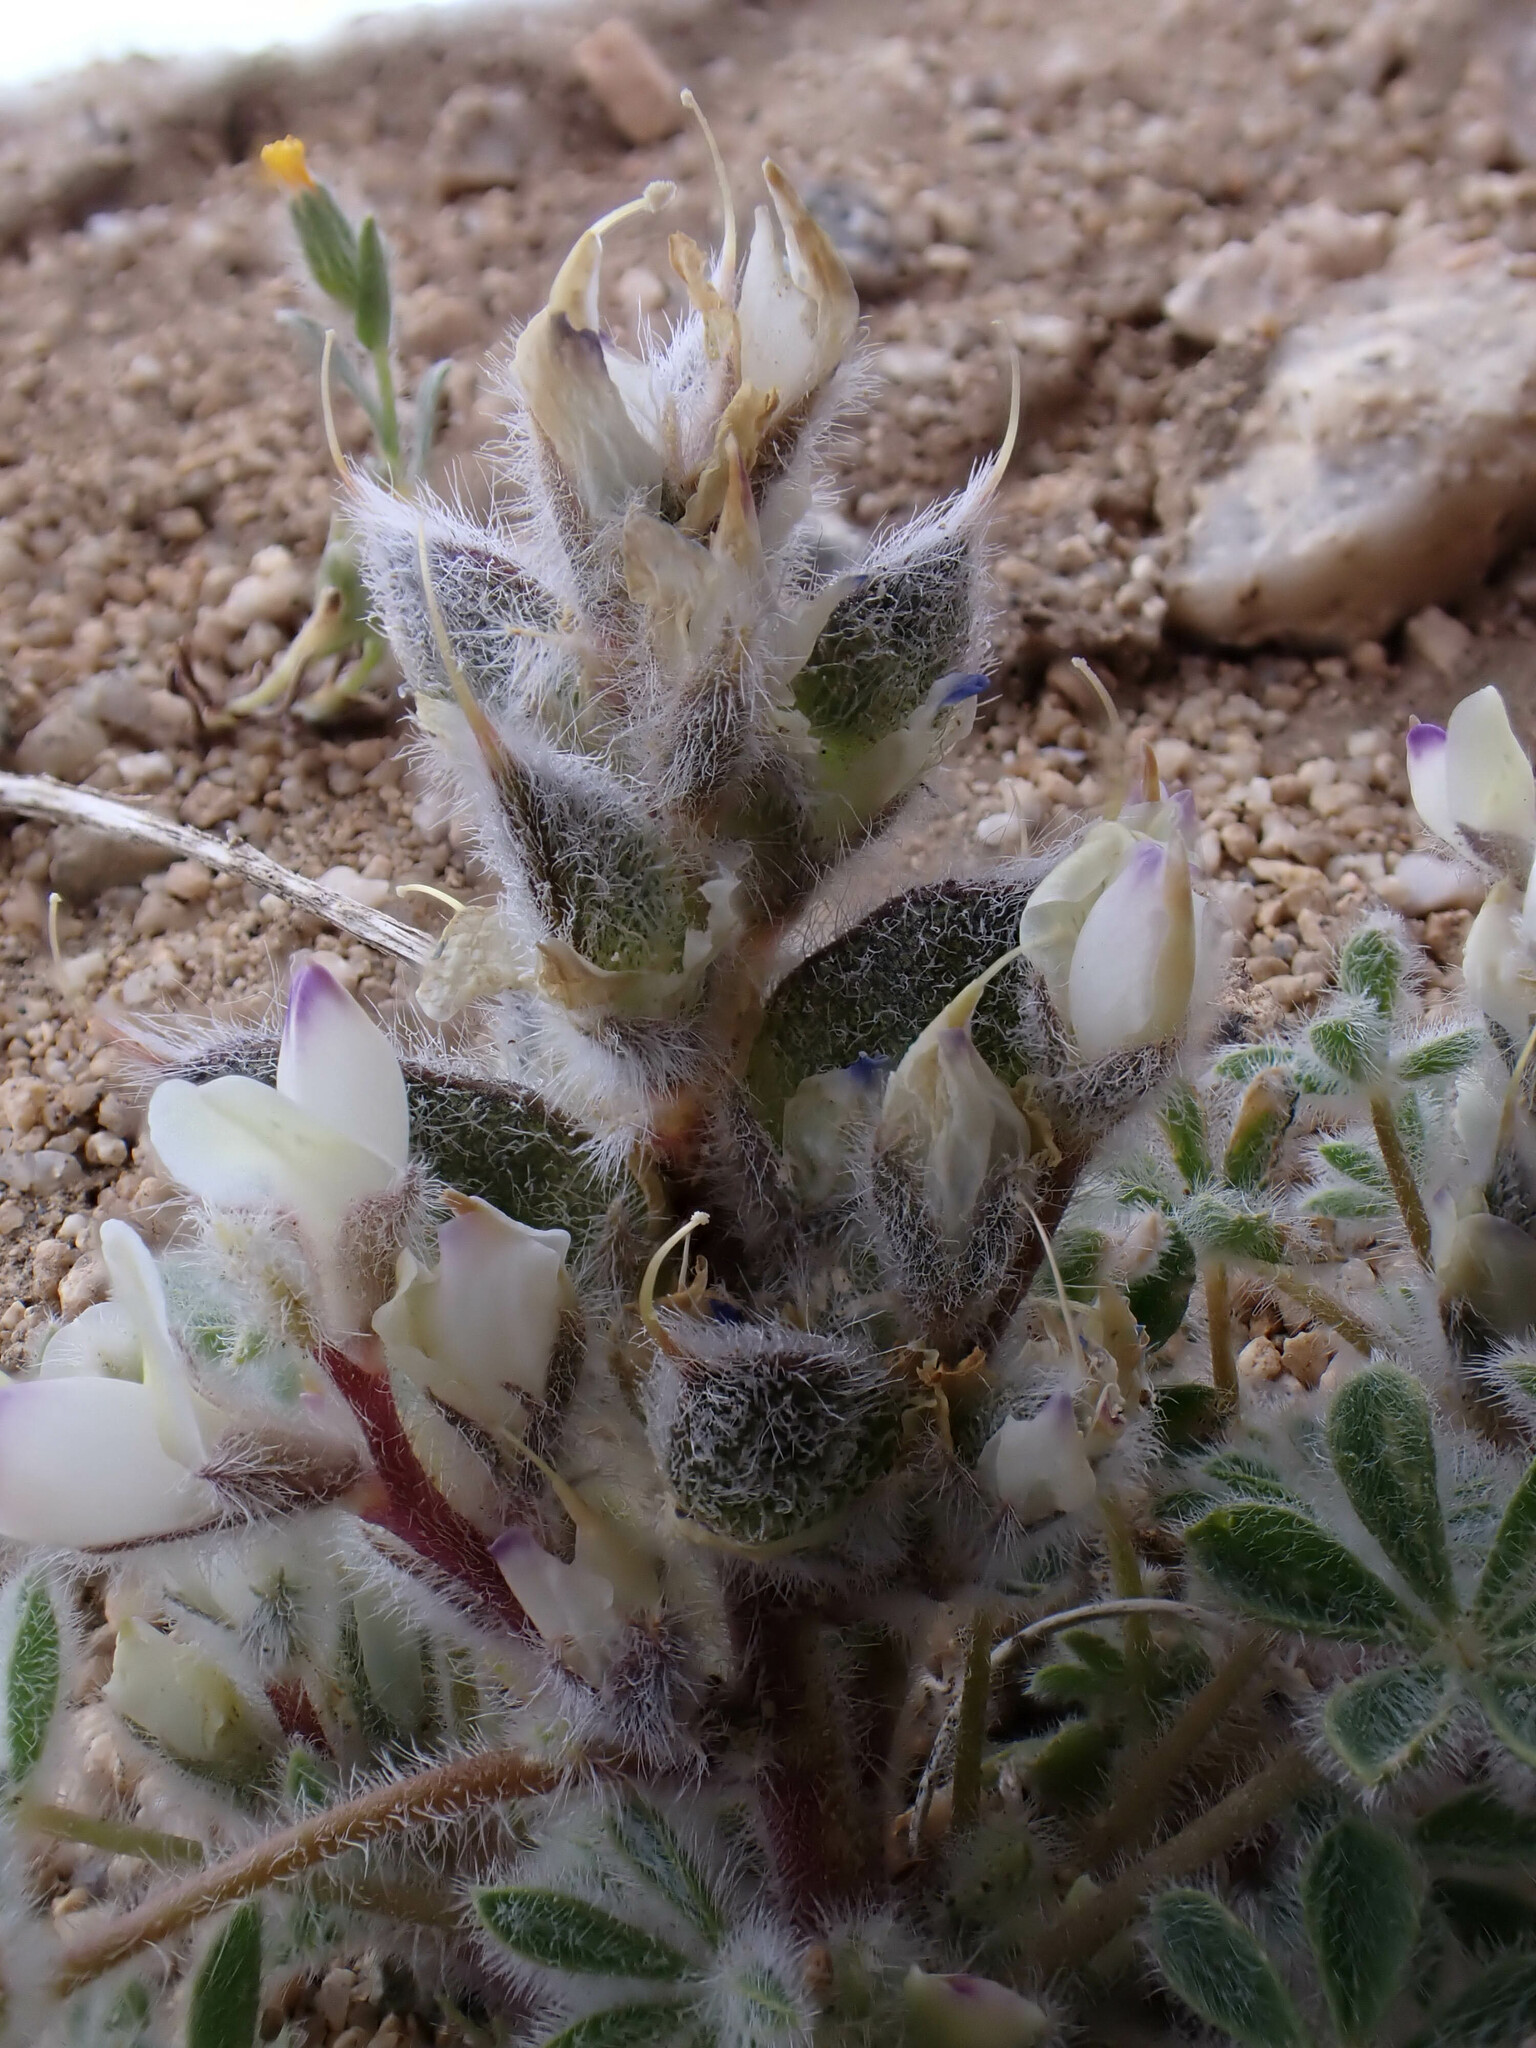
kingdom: Plantae
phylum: Tracheophyta
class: Magnoliopsida
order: Fabales
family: Fabaceae
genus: Lupinus
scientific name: Lupinus concinnus
